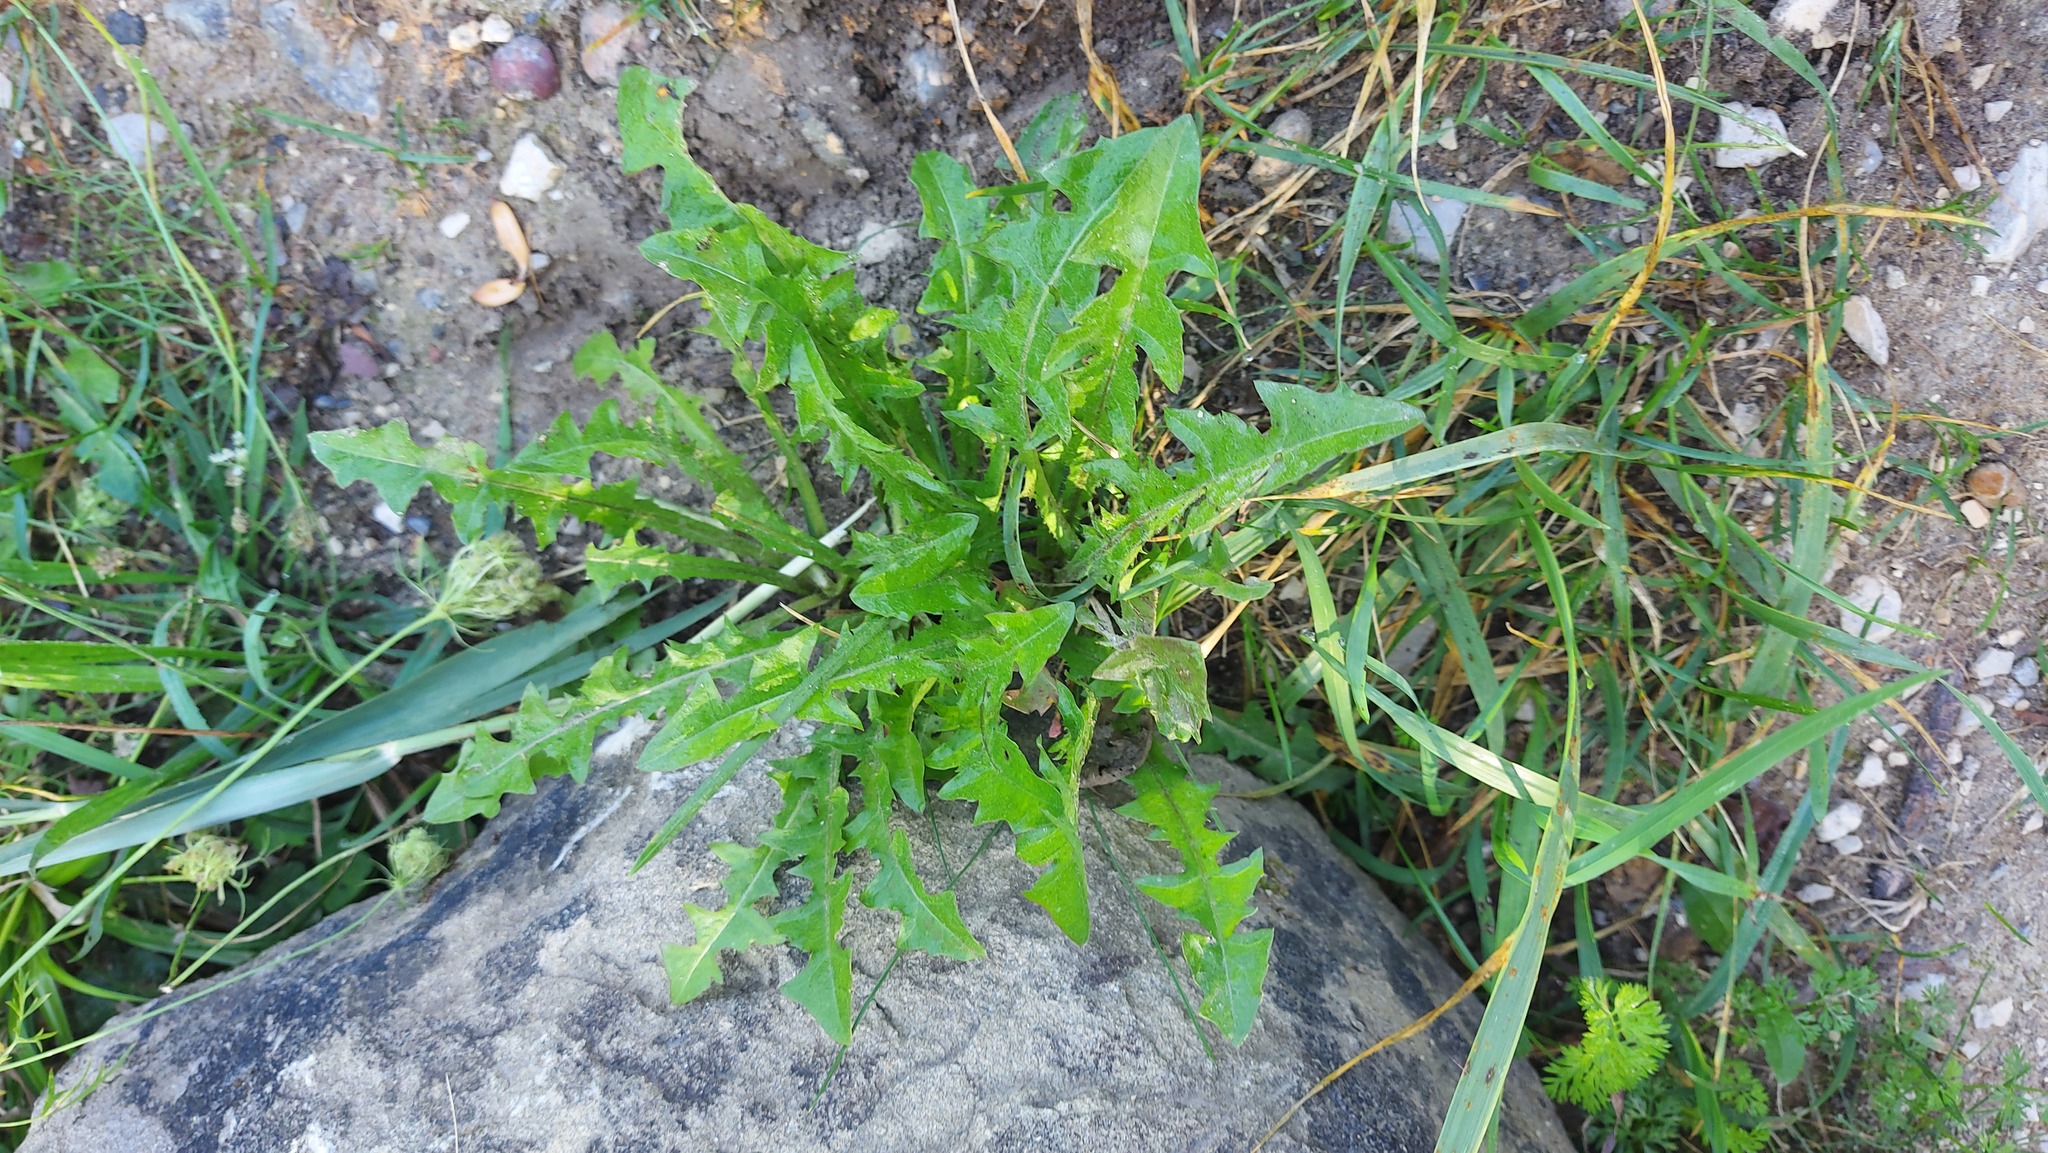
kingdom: Plantae
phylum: Tracheophyta
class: Magnoliopsida
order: Asterales
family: Asteraceae
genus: Taraxacum
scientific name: Taraxacum officinale
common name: Common dandelion
